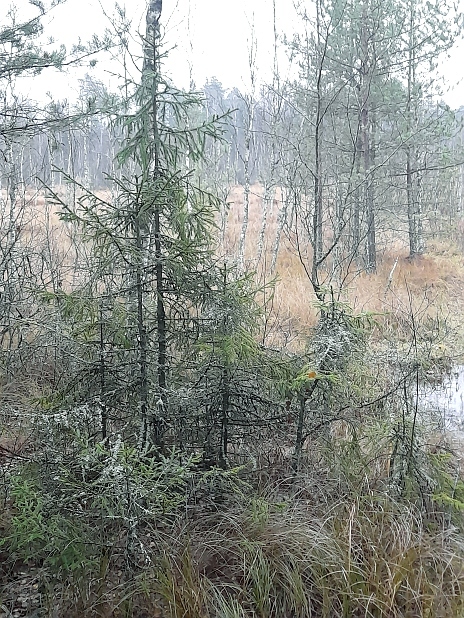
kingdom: Plantae
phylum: Tracheophyta
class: Pinopsida
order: Pinales
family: Pinaceae
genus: Picea
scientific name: Picea abies
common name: Norway spruce
